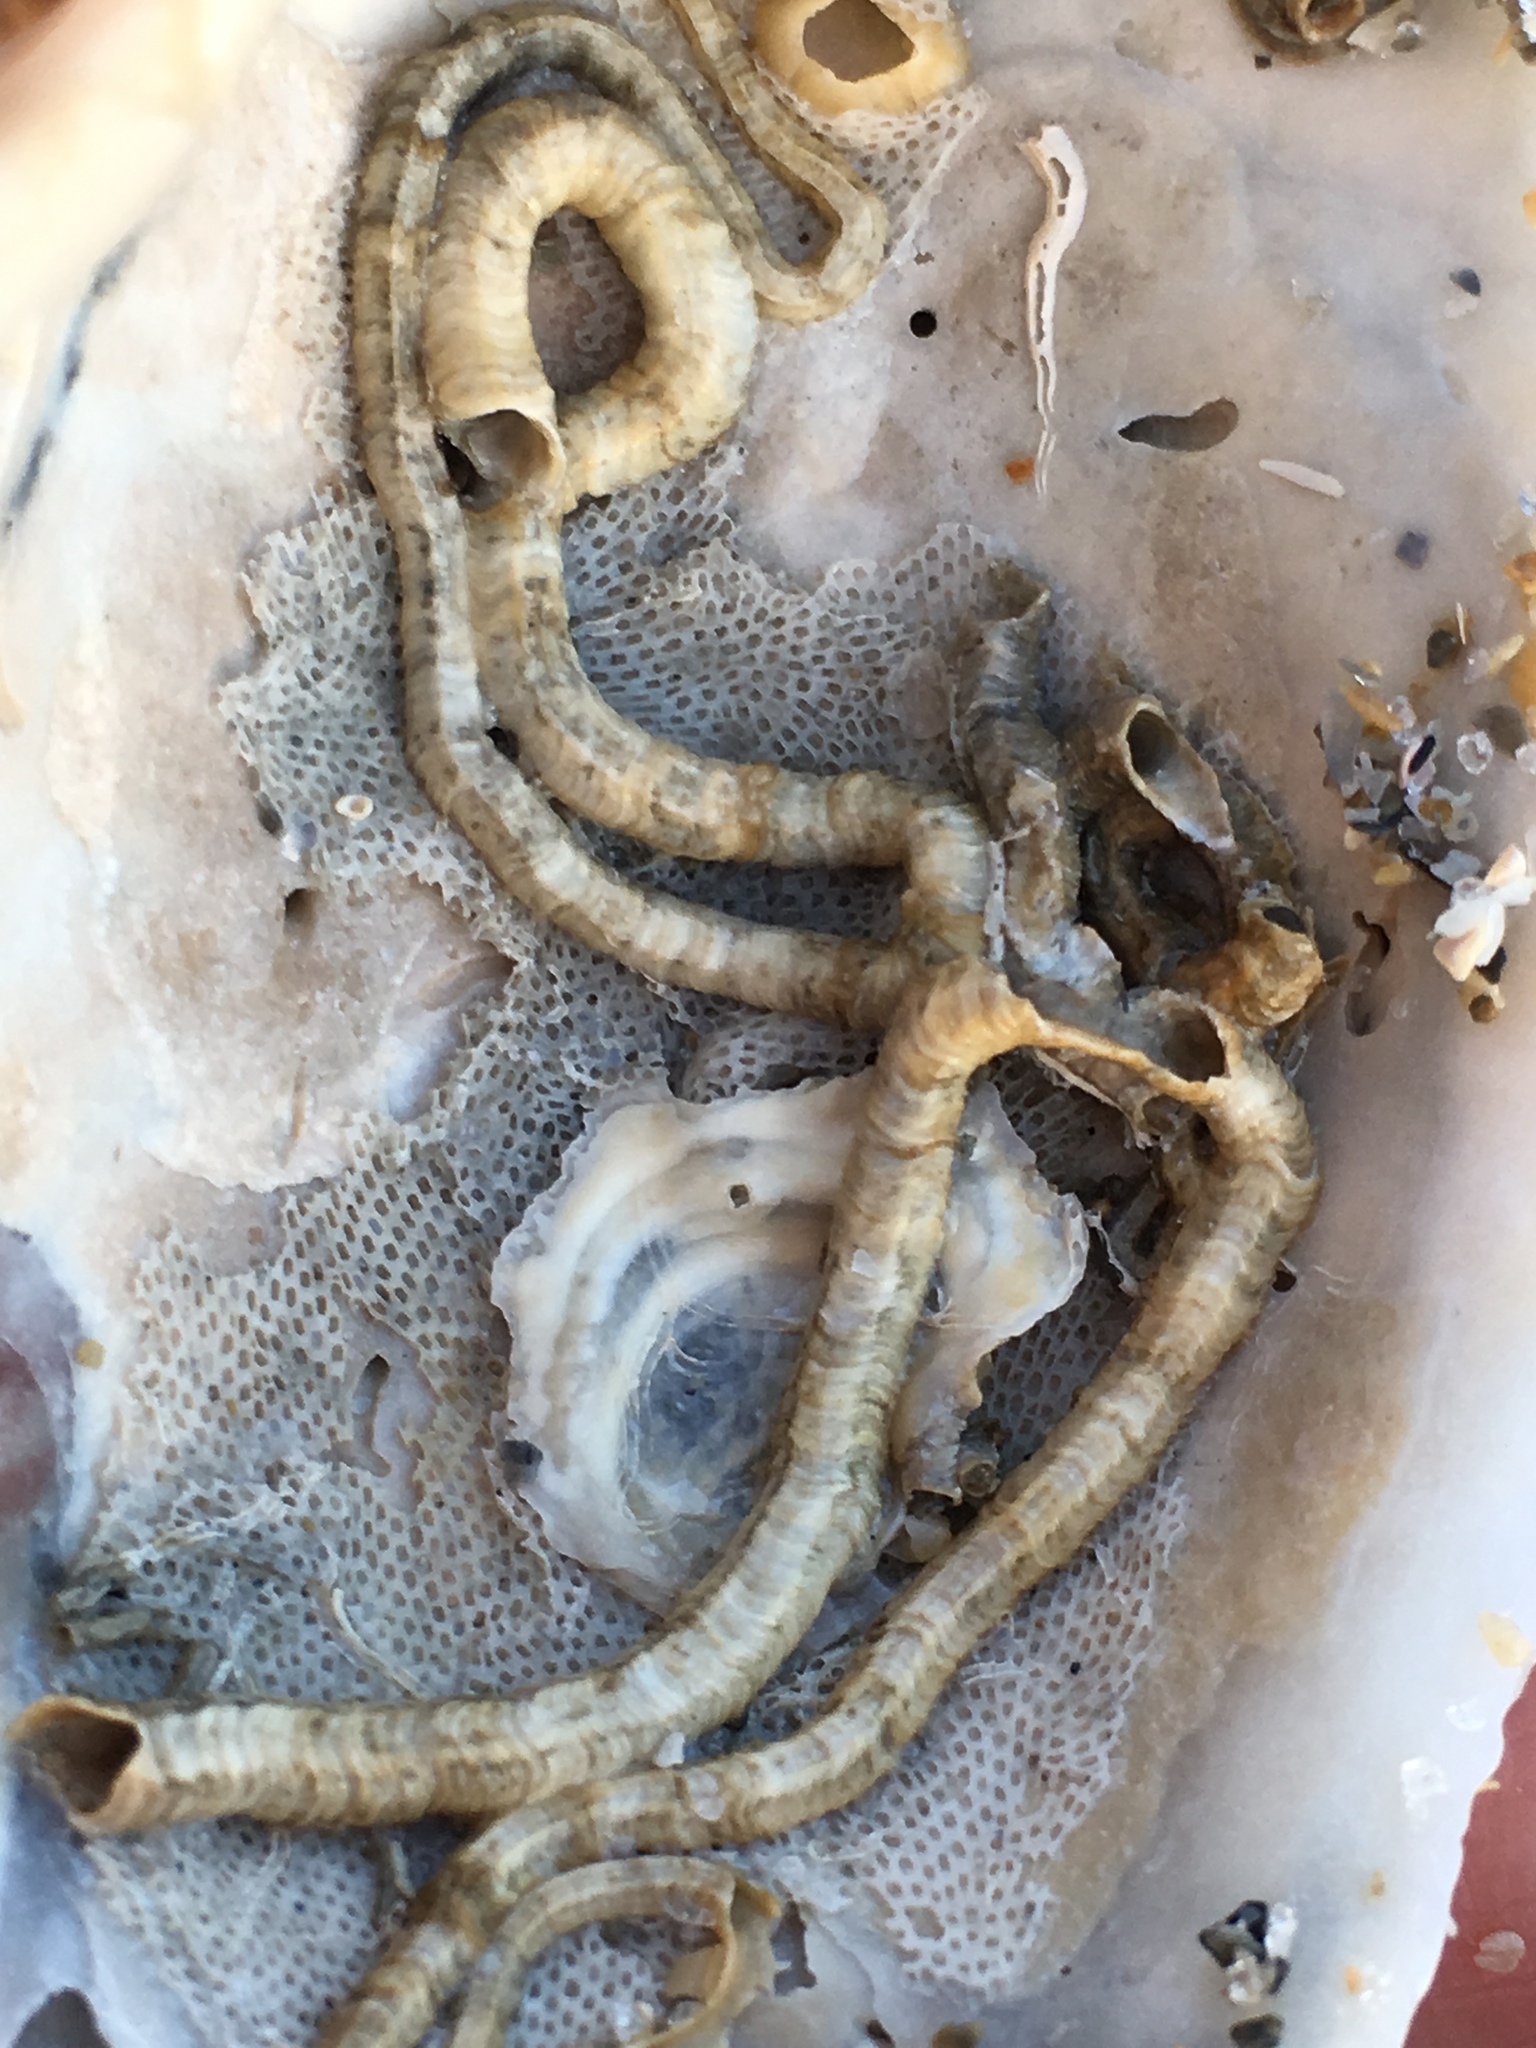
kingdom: Animalia
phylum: Mollusca
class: Bivalvia
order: Ostreida
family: Ostreidae
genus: Crassostrea
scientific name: Crassostrea virginica
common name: American oyster
